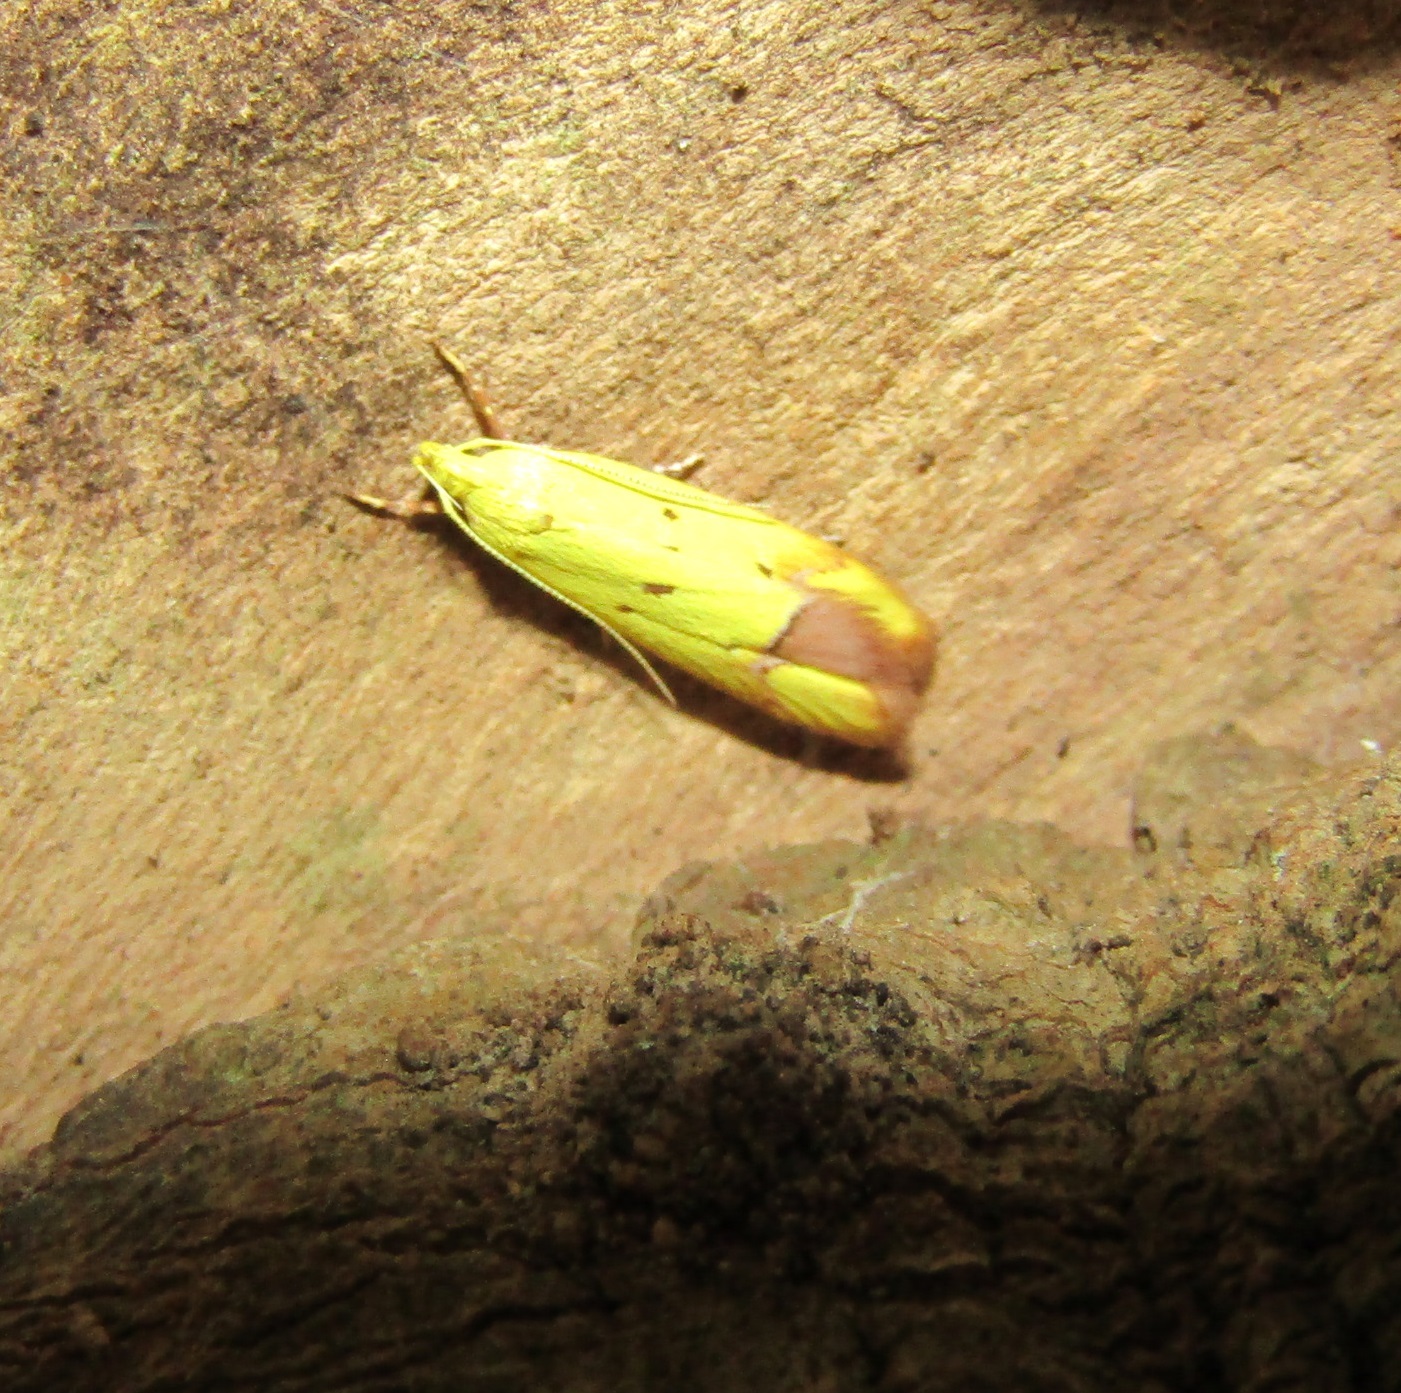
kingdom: Animalia
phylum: Arthropoda
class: Insecta
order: Lepidoptera
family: Oecophoridae
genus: Gymnobathra
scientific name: Gymnobathra flavidella
